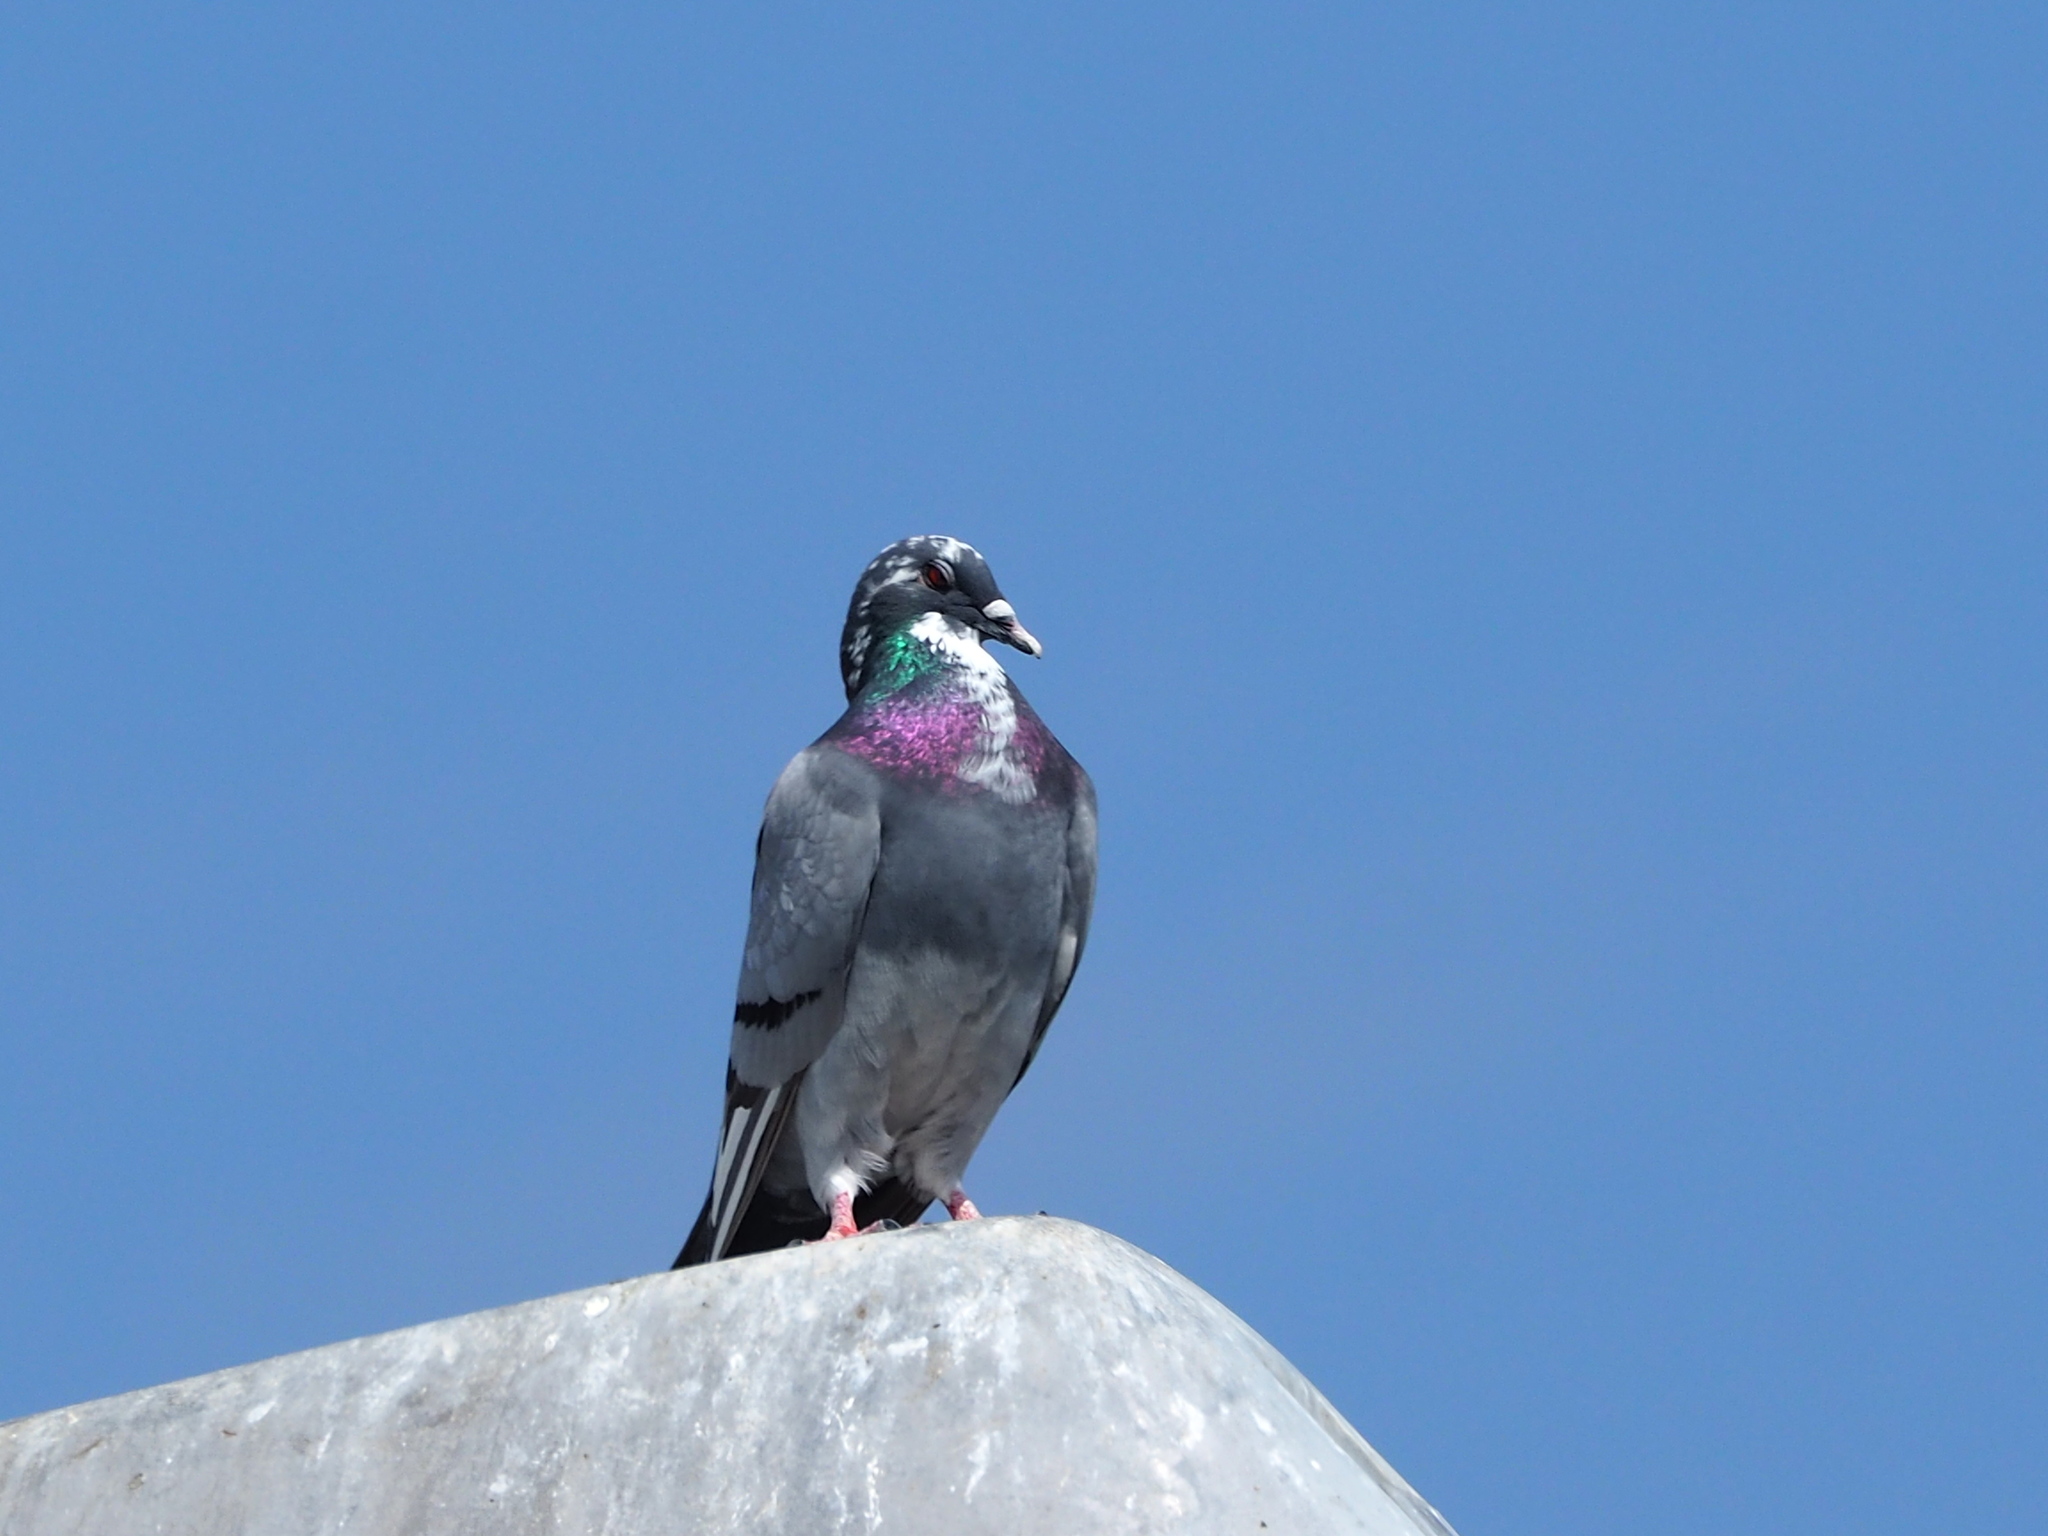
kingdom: Animalia
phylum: Chordata
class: Aves
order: Columbiformes
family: Columbidae
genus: Columba
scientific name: Columba livia
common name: Rock pigeon
